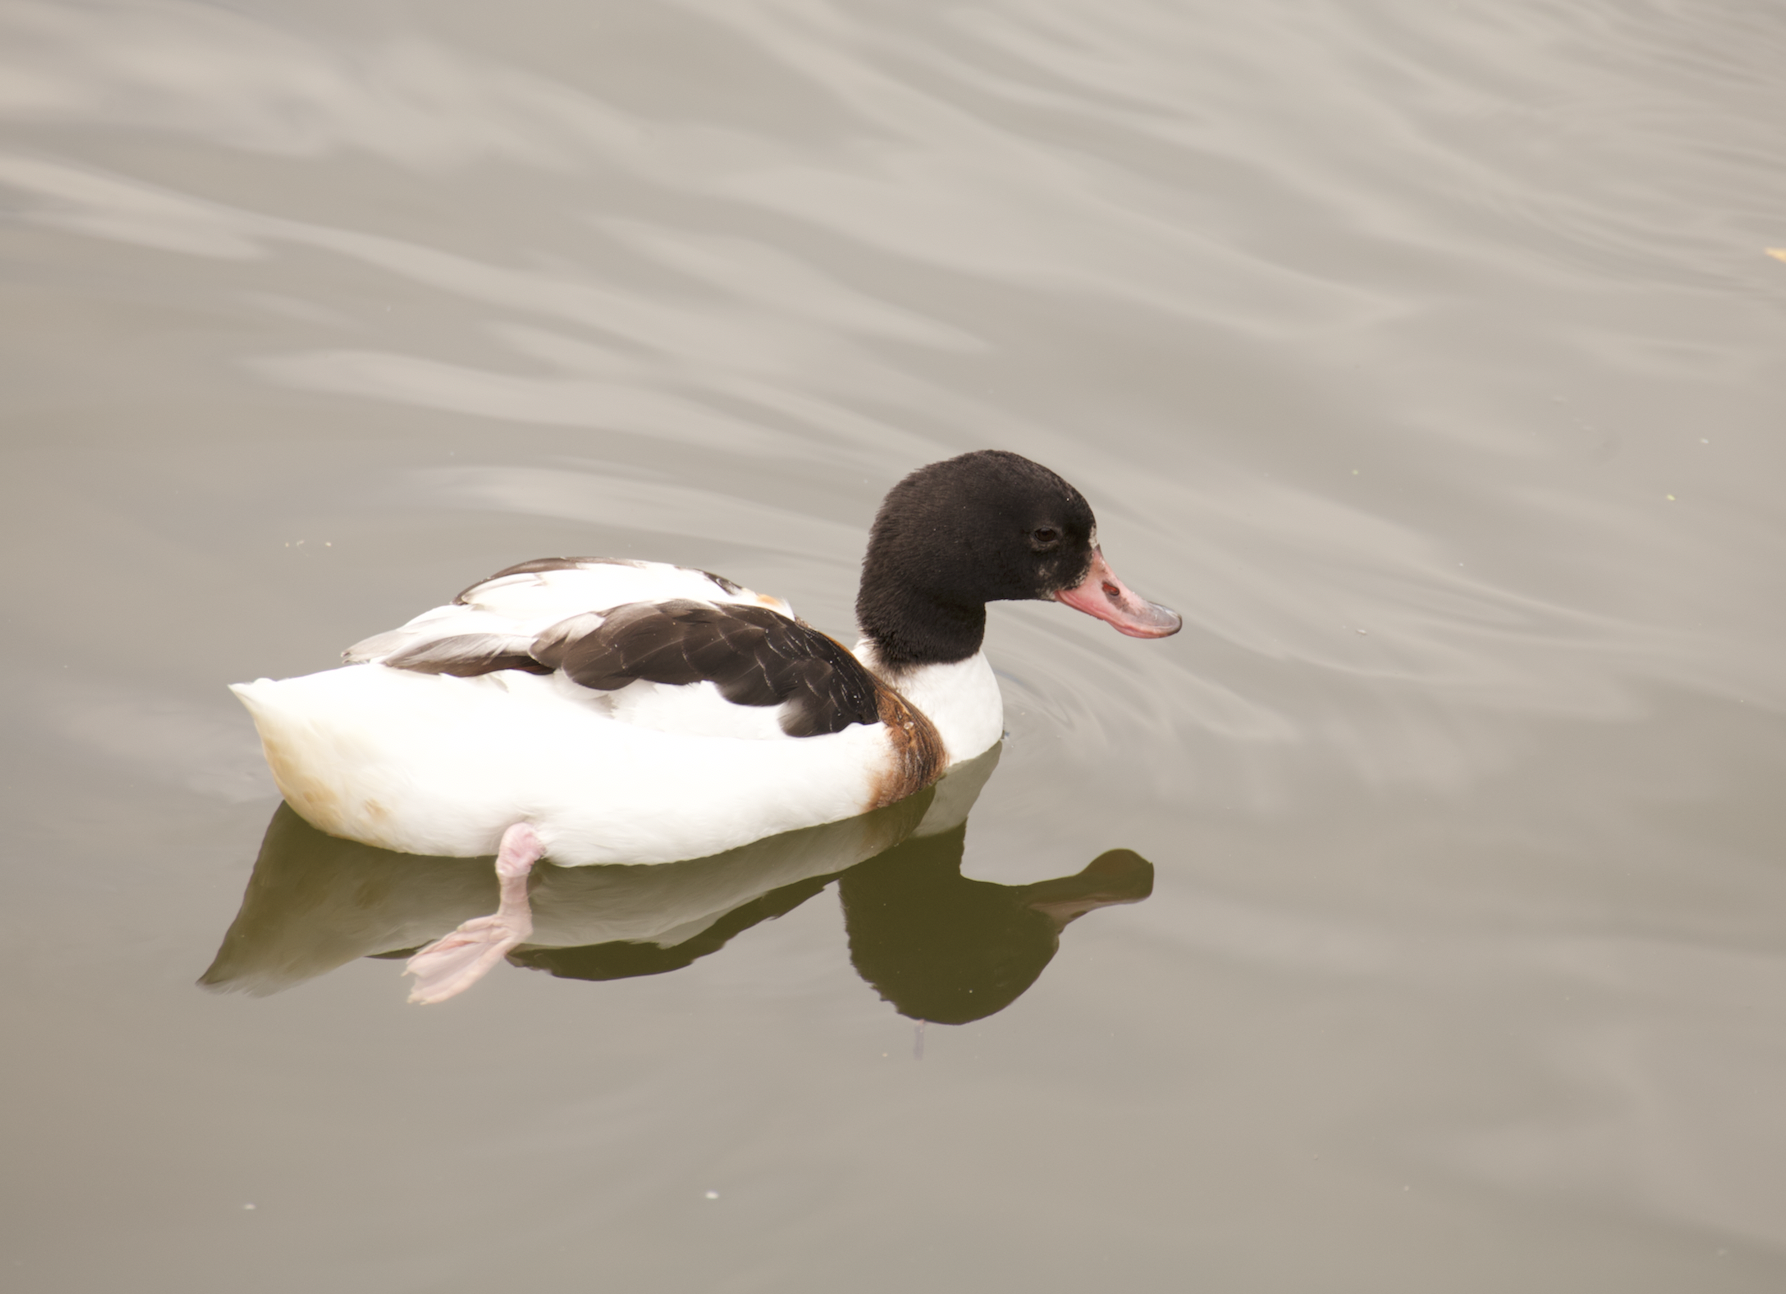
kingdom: Animalia
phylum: Chordata
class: Aves
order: Anseriformes
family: Anatidae
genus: Tadorna
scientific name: Tadorna tadorna
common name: Common shelduck
